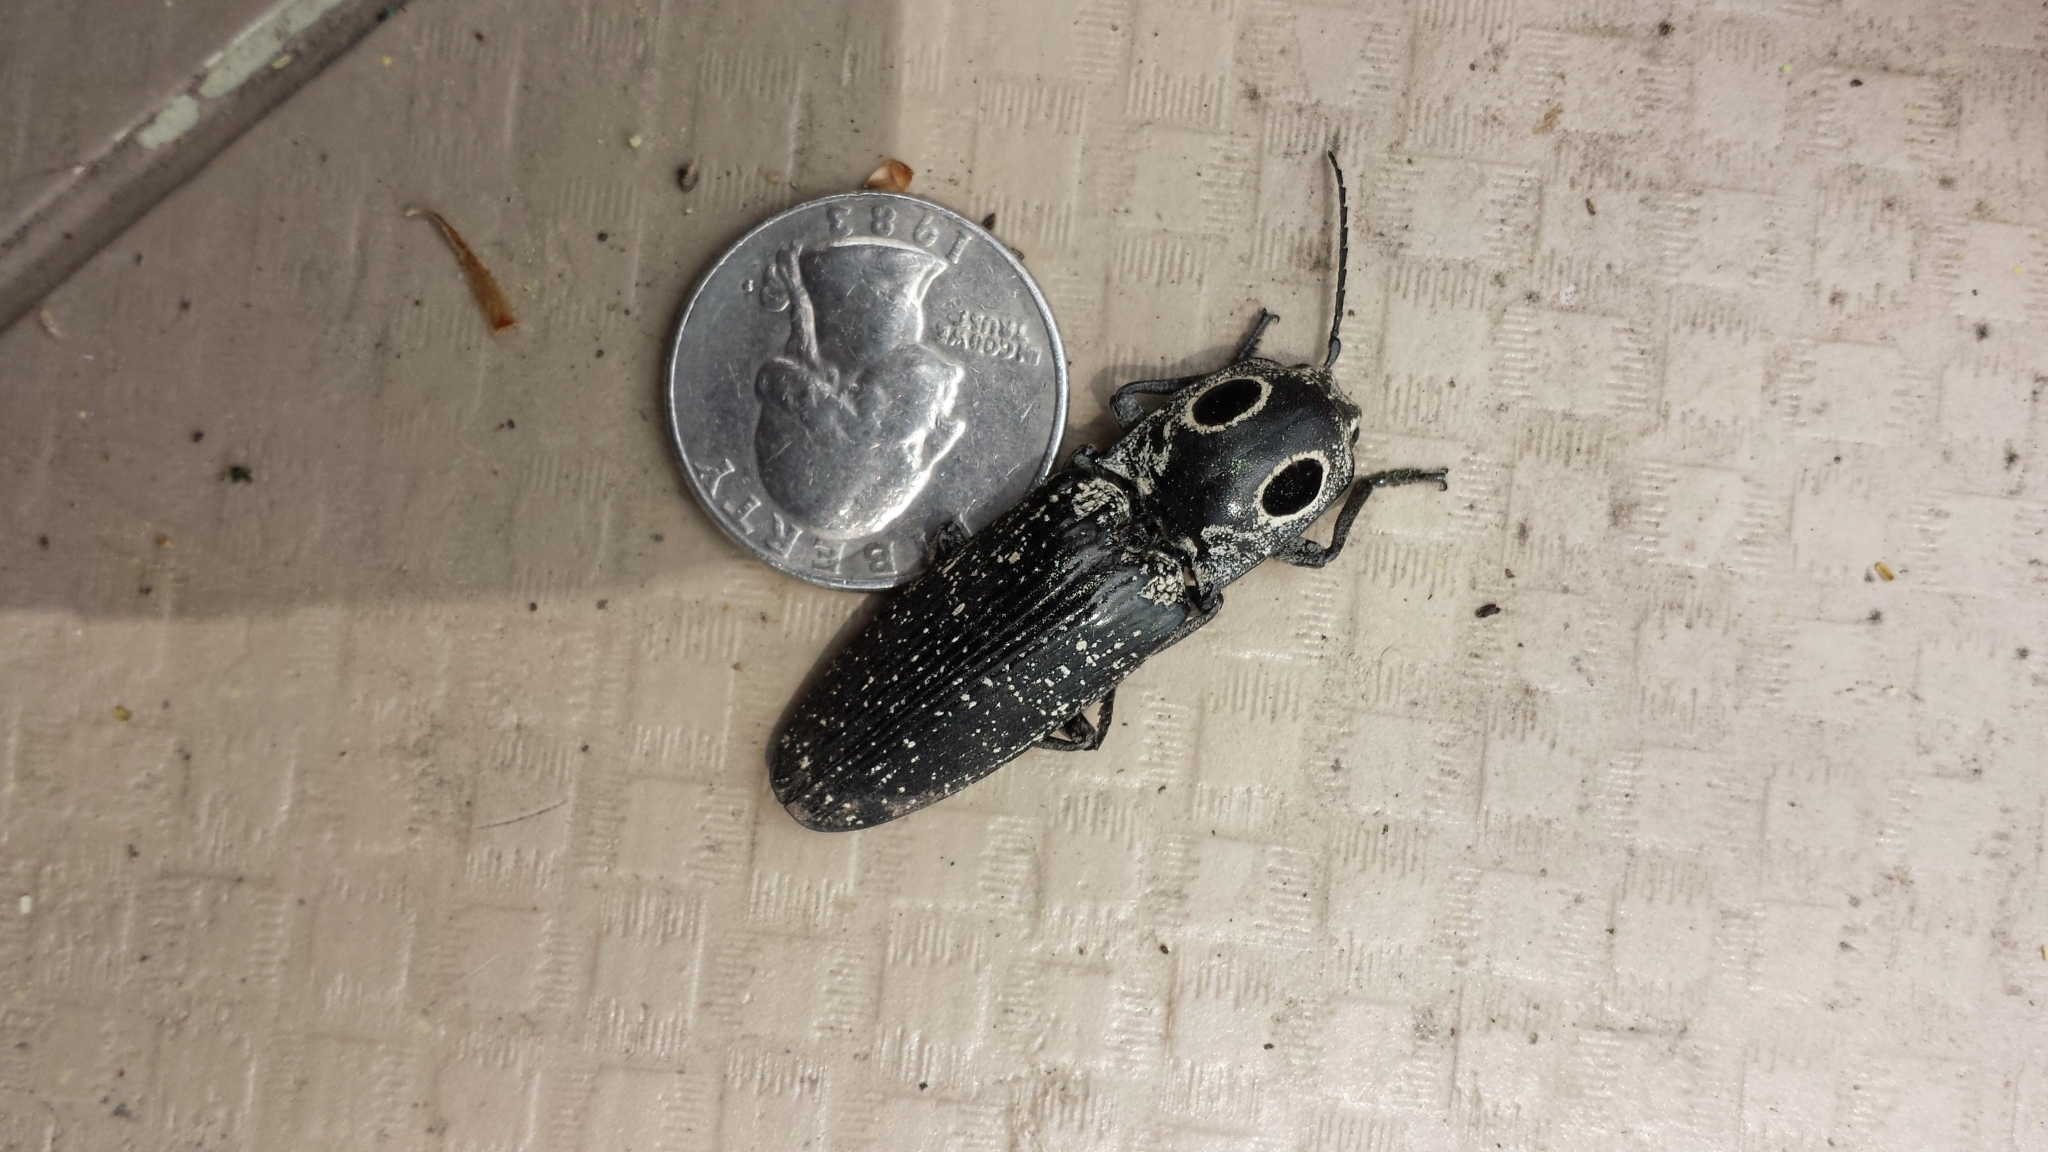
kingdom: Animalia
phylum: Arthropoda
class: Insecta
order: Coleoptera
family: Elateridae
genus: Alaus
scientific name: Alaus oculatus
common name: Eastern eyed click beetle
